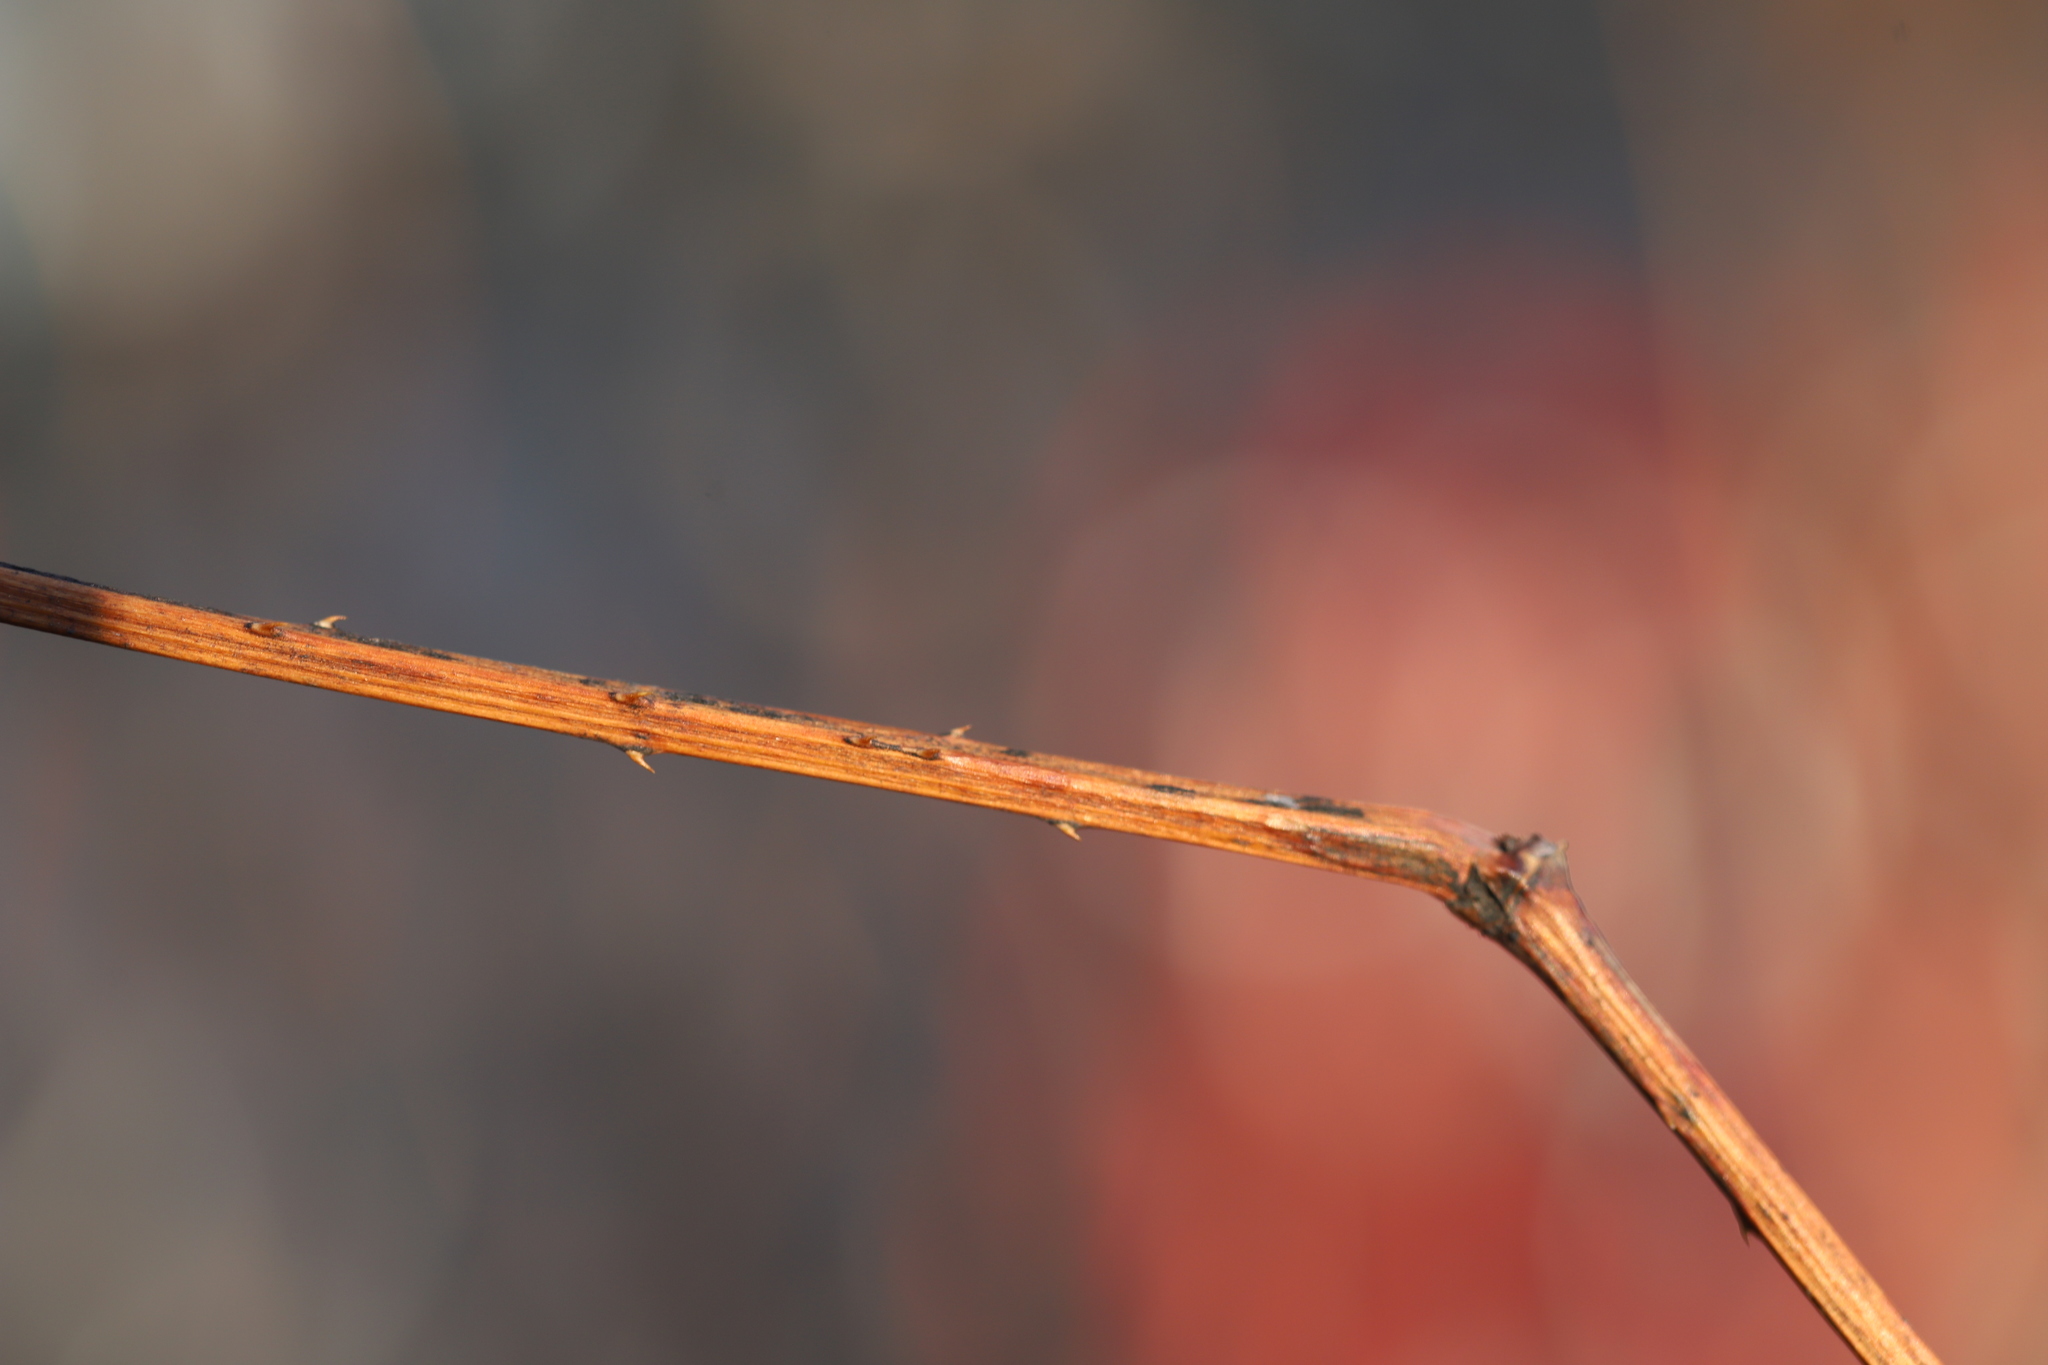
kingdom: Plantae
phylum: Tracheophyta
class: Magnoliopsida
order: Caryophyllales
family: Polygonaceae
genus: Persicaria
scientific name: Persicaria perfoliata
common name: Asiatic tearthumb
